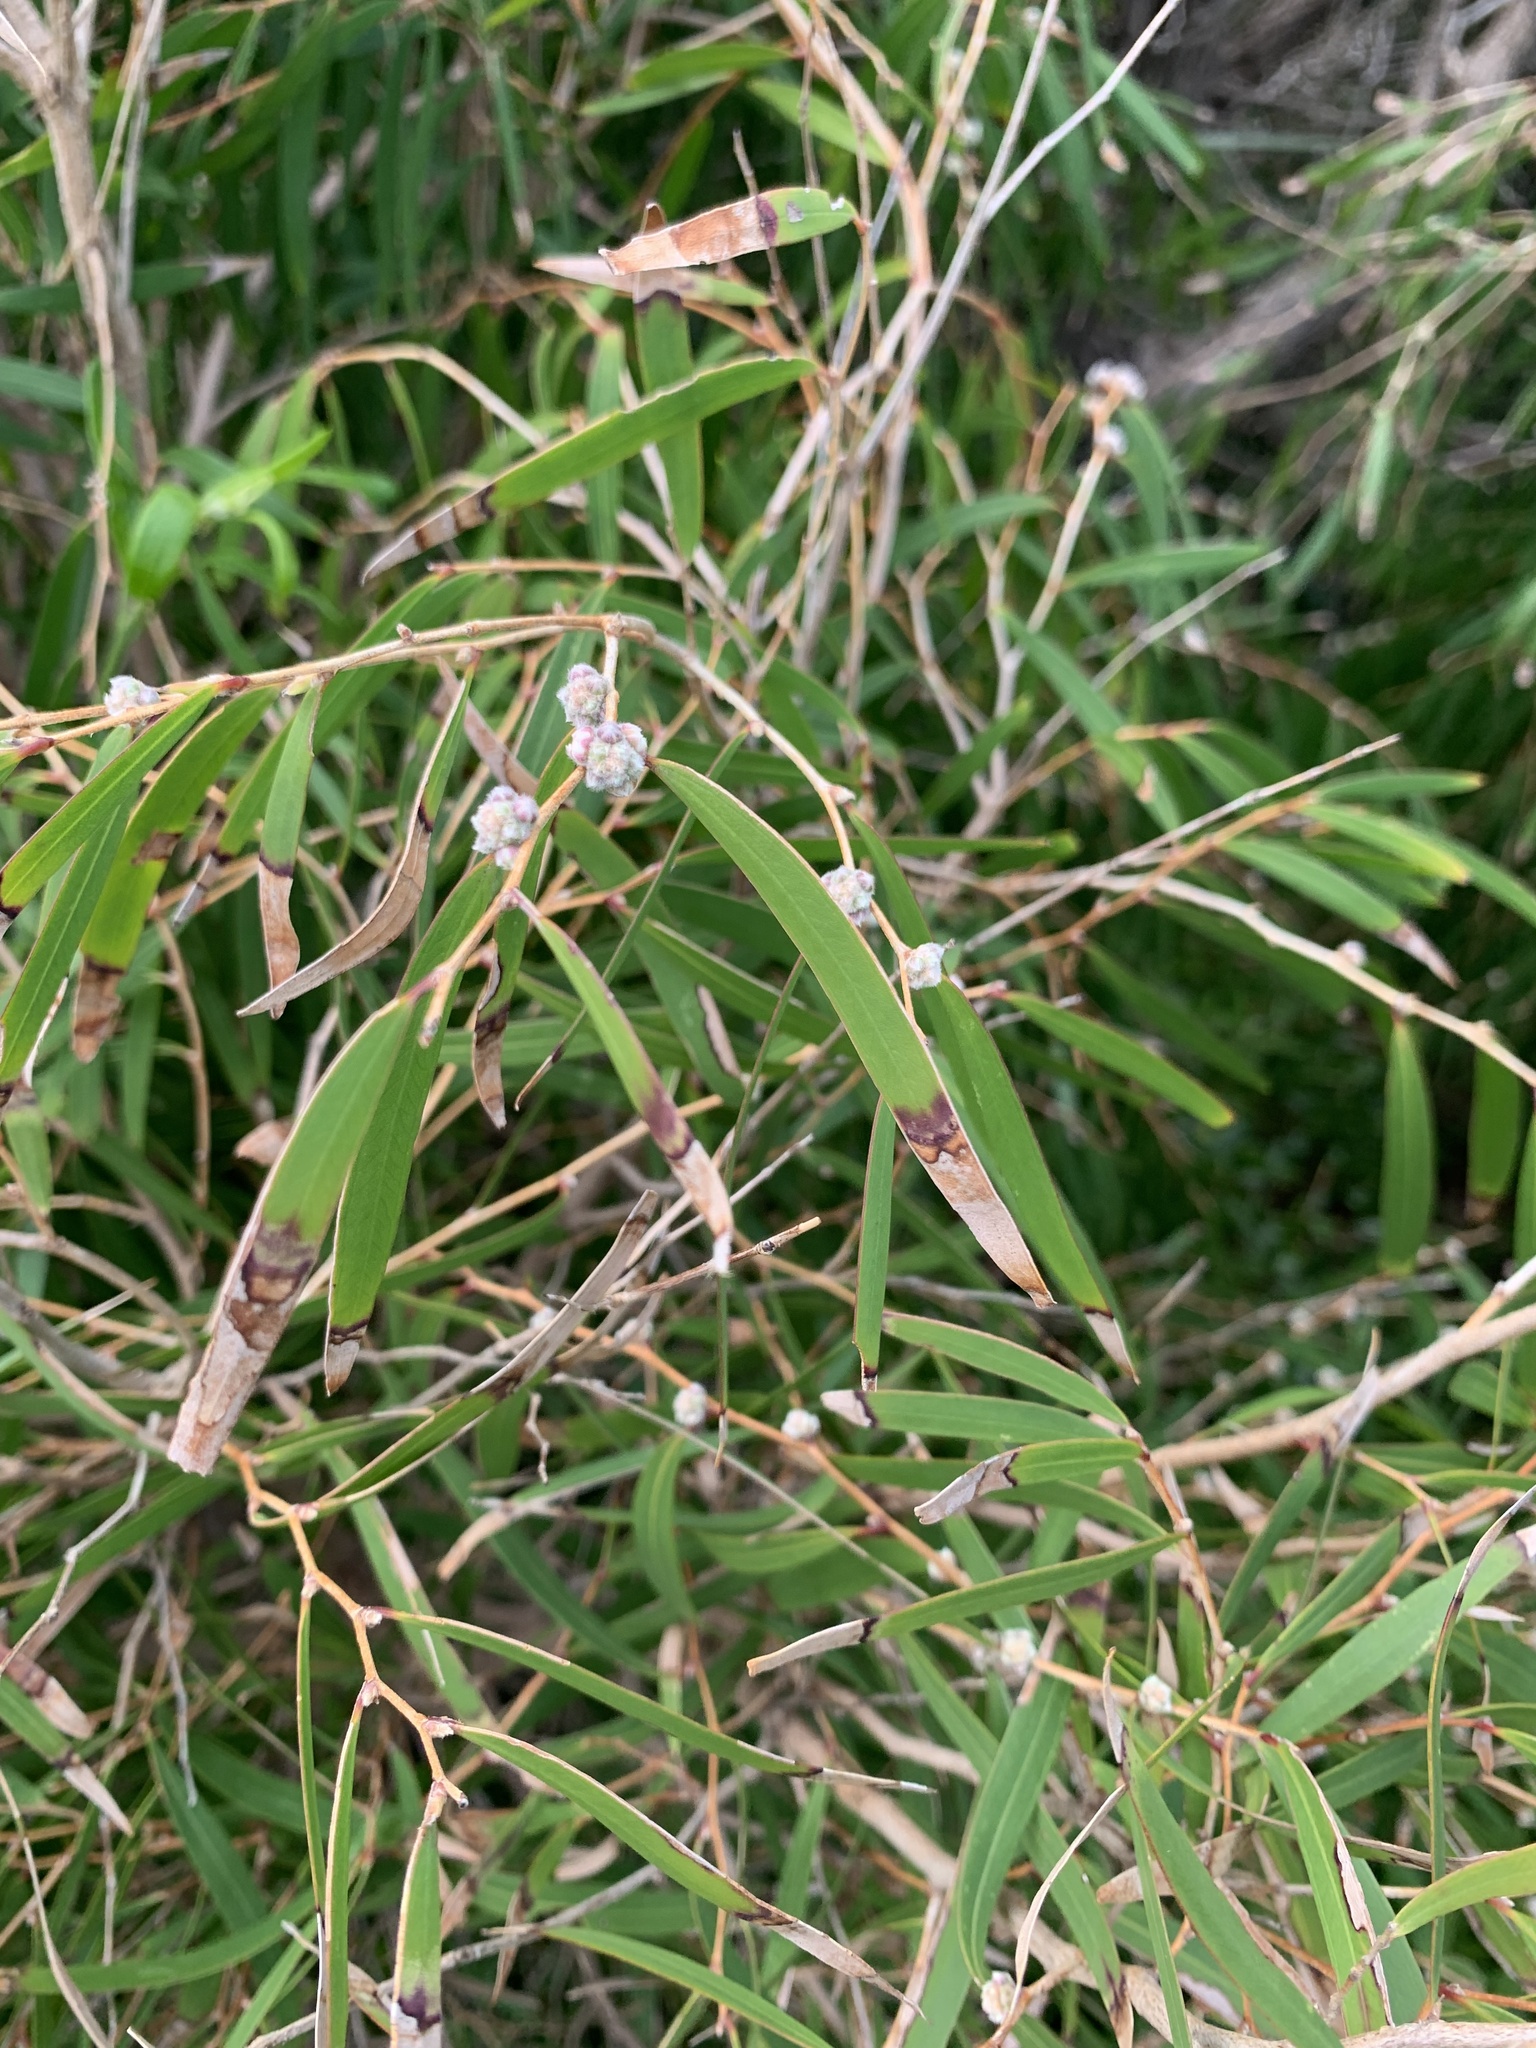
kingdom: Plantae
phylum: Tracheophyta
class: Magnoliopsida
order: Myrtales
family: Myrtaceae
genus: Agonis
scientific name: Agonis flexuosa
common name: Willow myrtle
